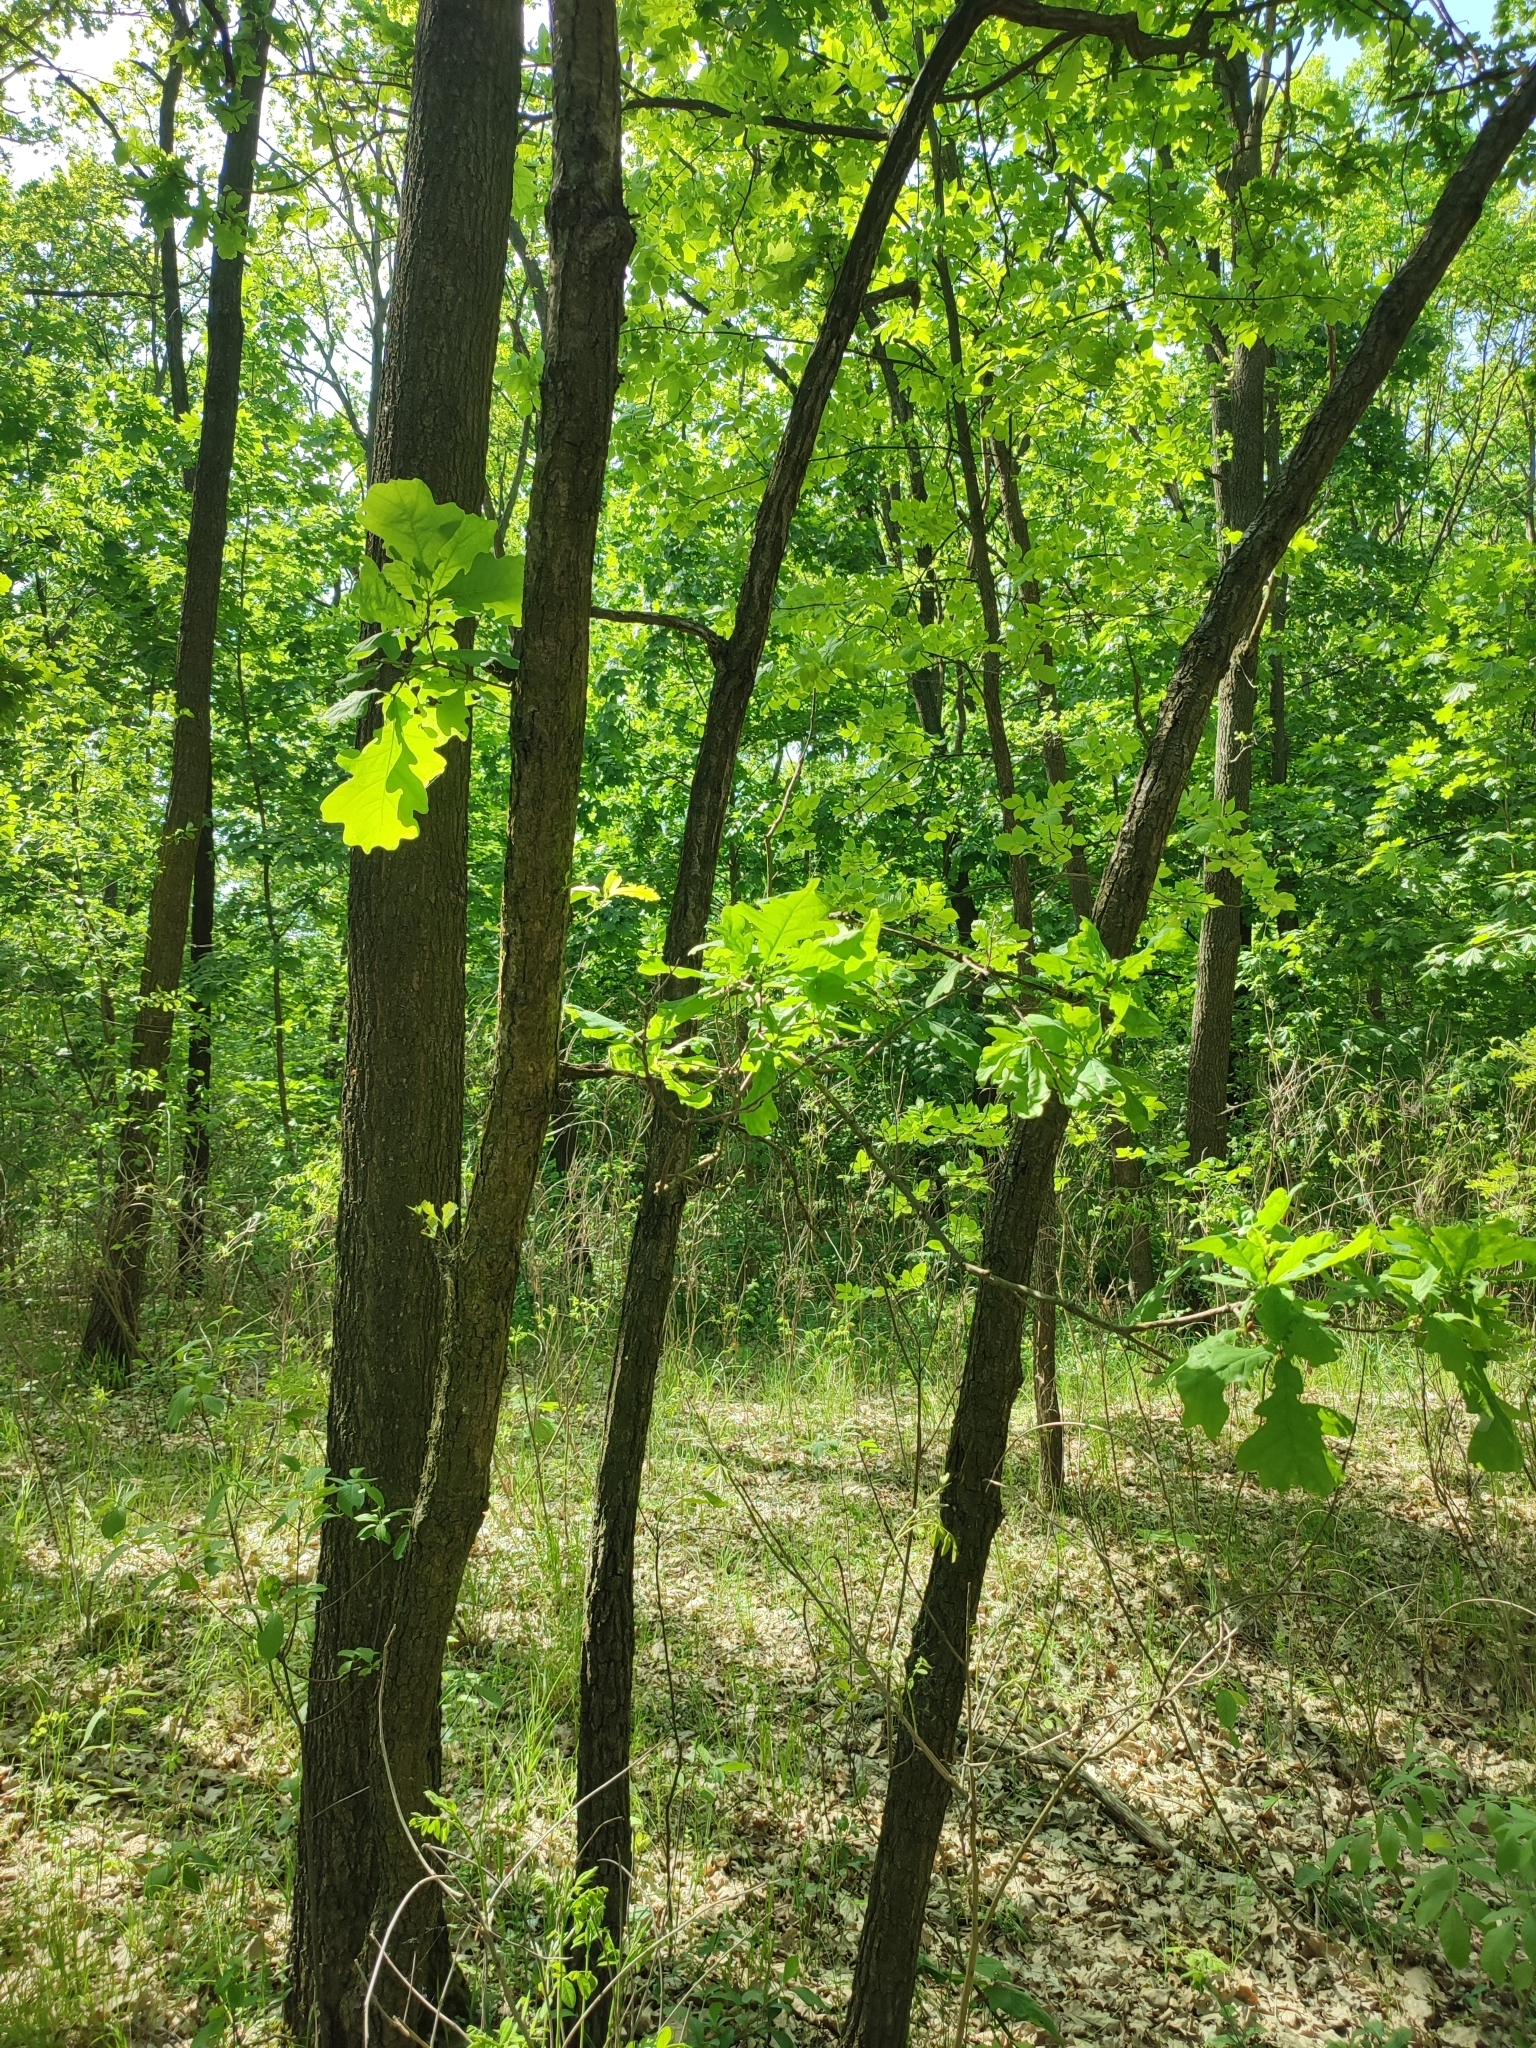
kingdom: Plantae
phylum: Tracheophyta
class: Magnoliopsida
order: Fagales
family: Fagaceae
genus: Quercus
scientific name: Quercus robur
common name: Pedunculate oak
